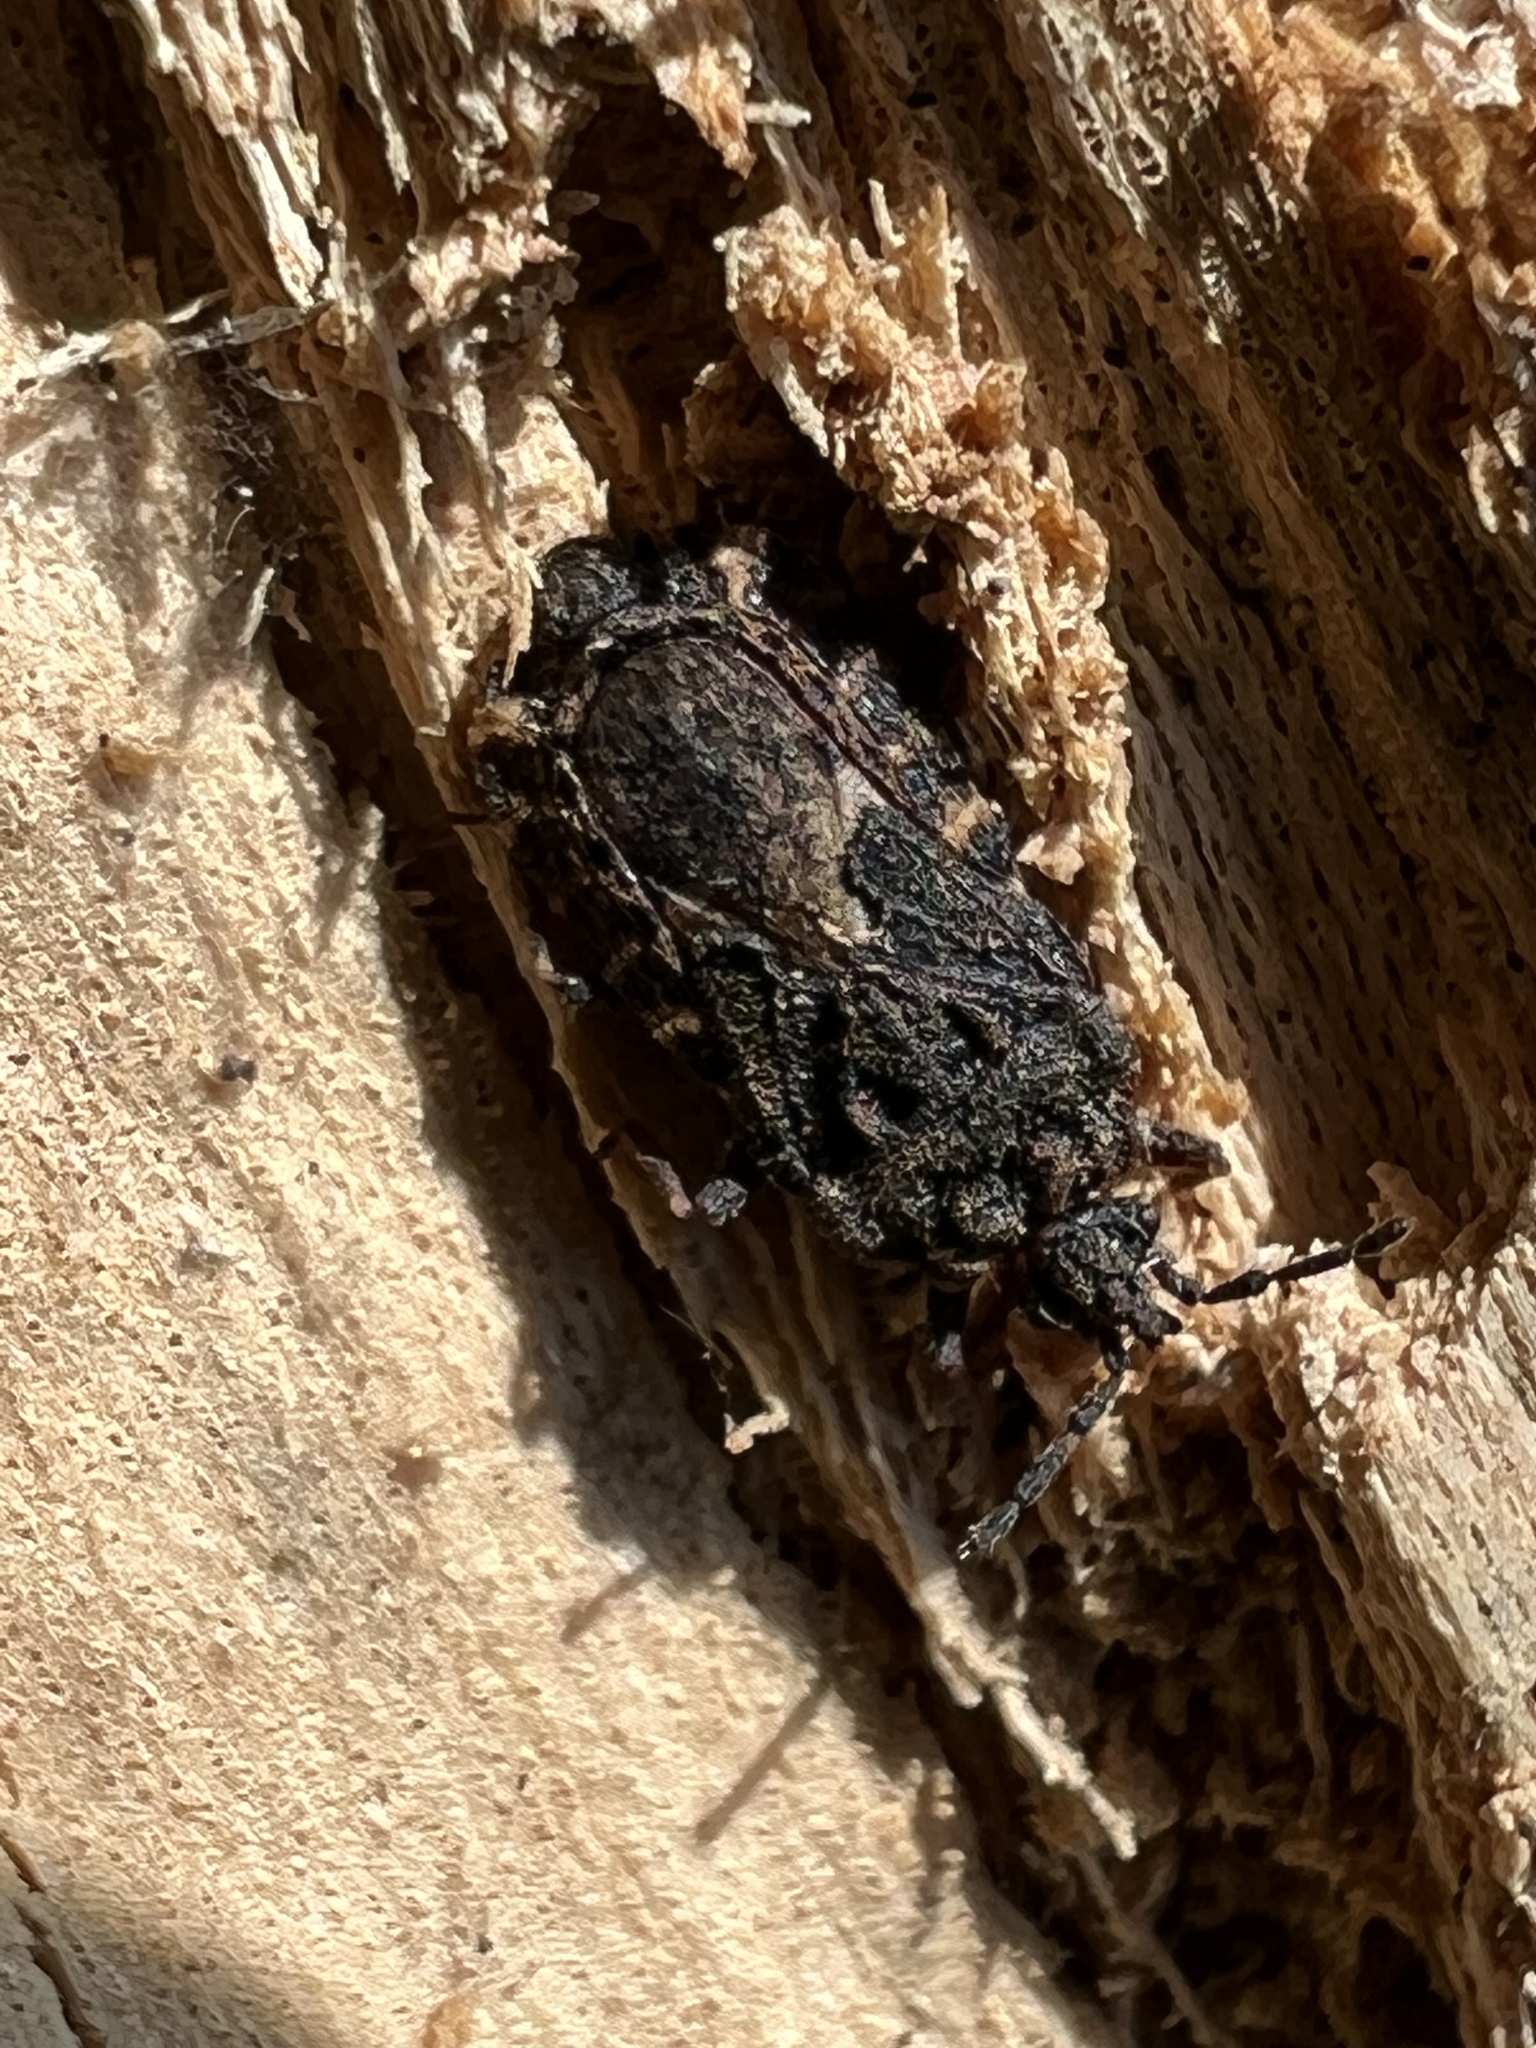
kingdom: Animalia
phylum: Arthropoda
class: Insecta
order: Hemiptera
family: Aradidae
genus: Mezira
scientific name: Mezira
